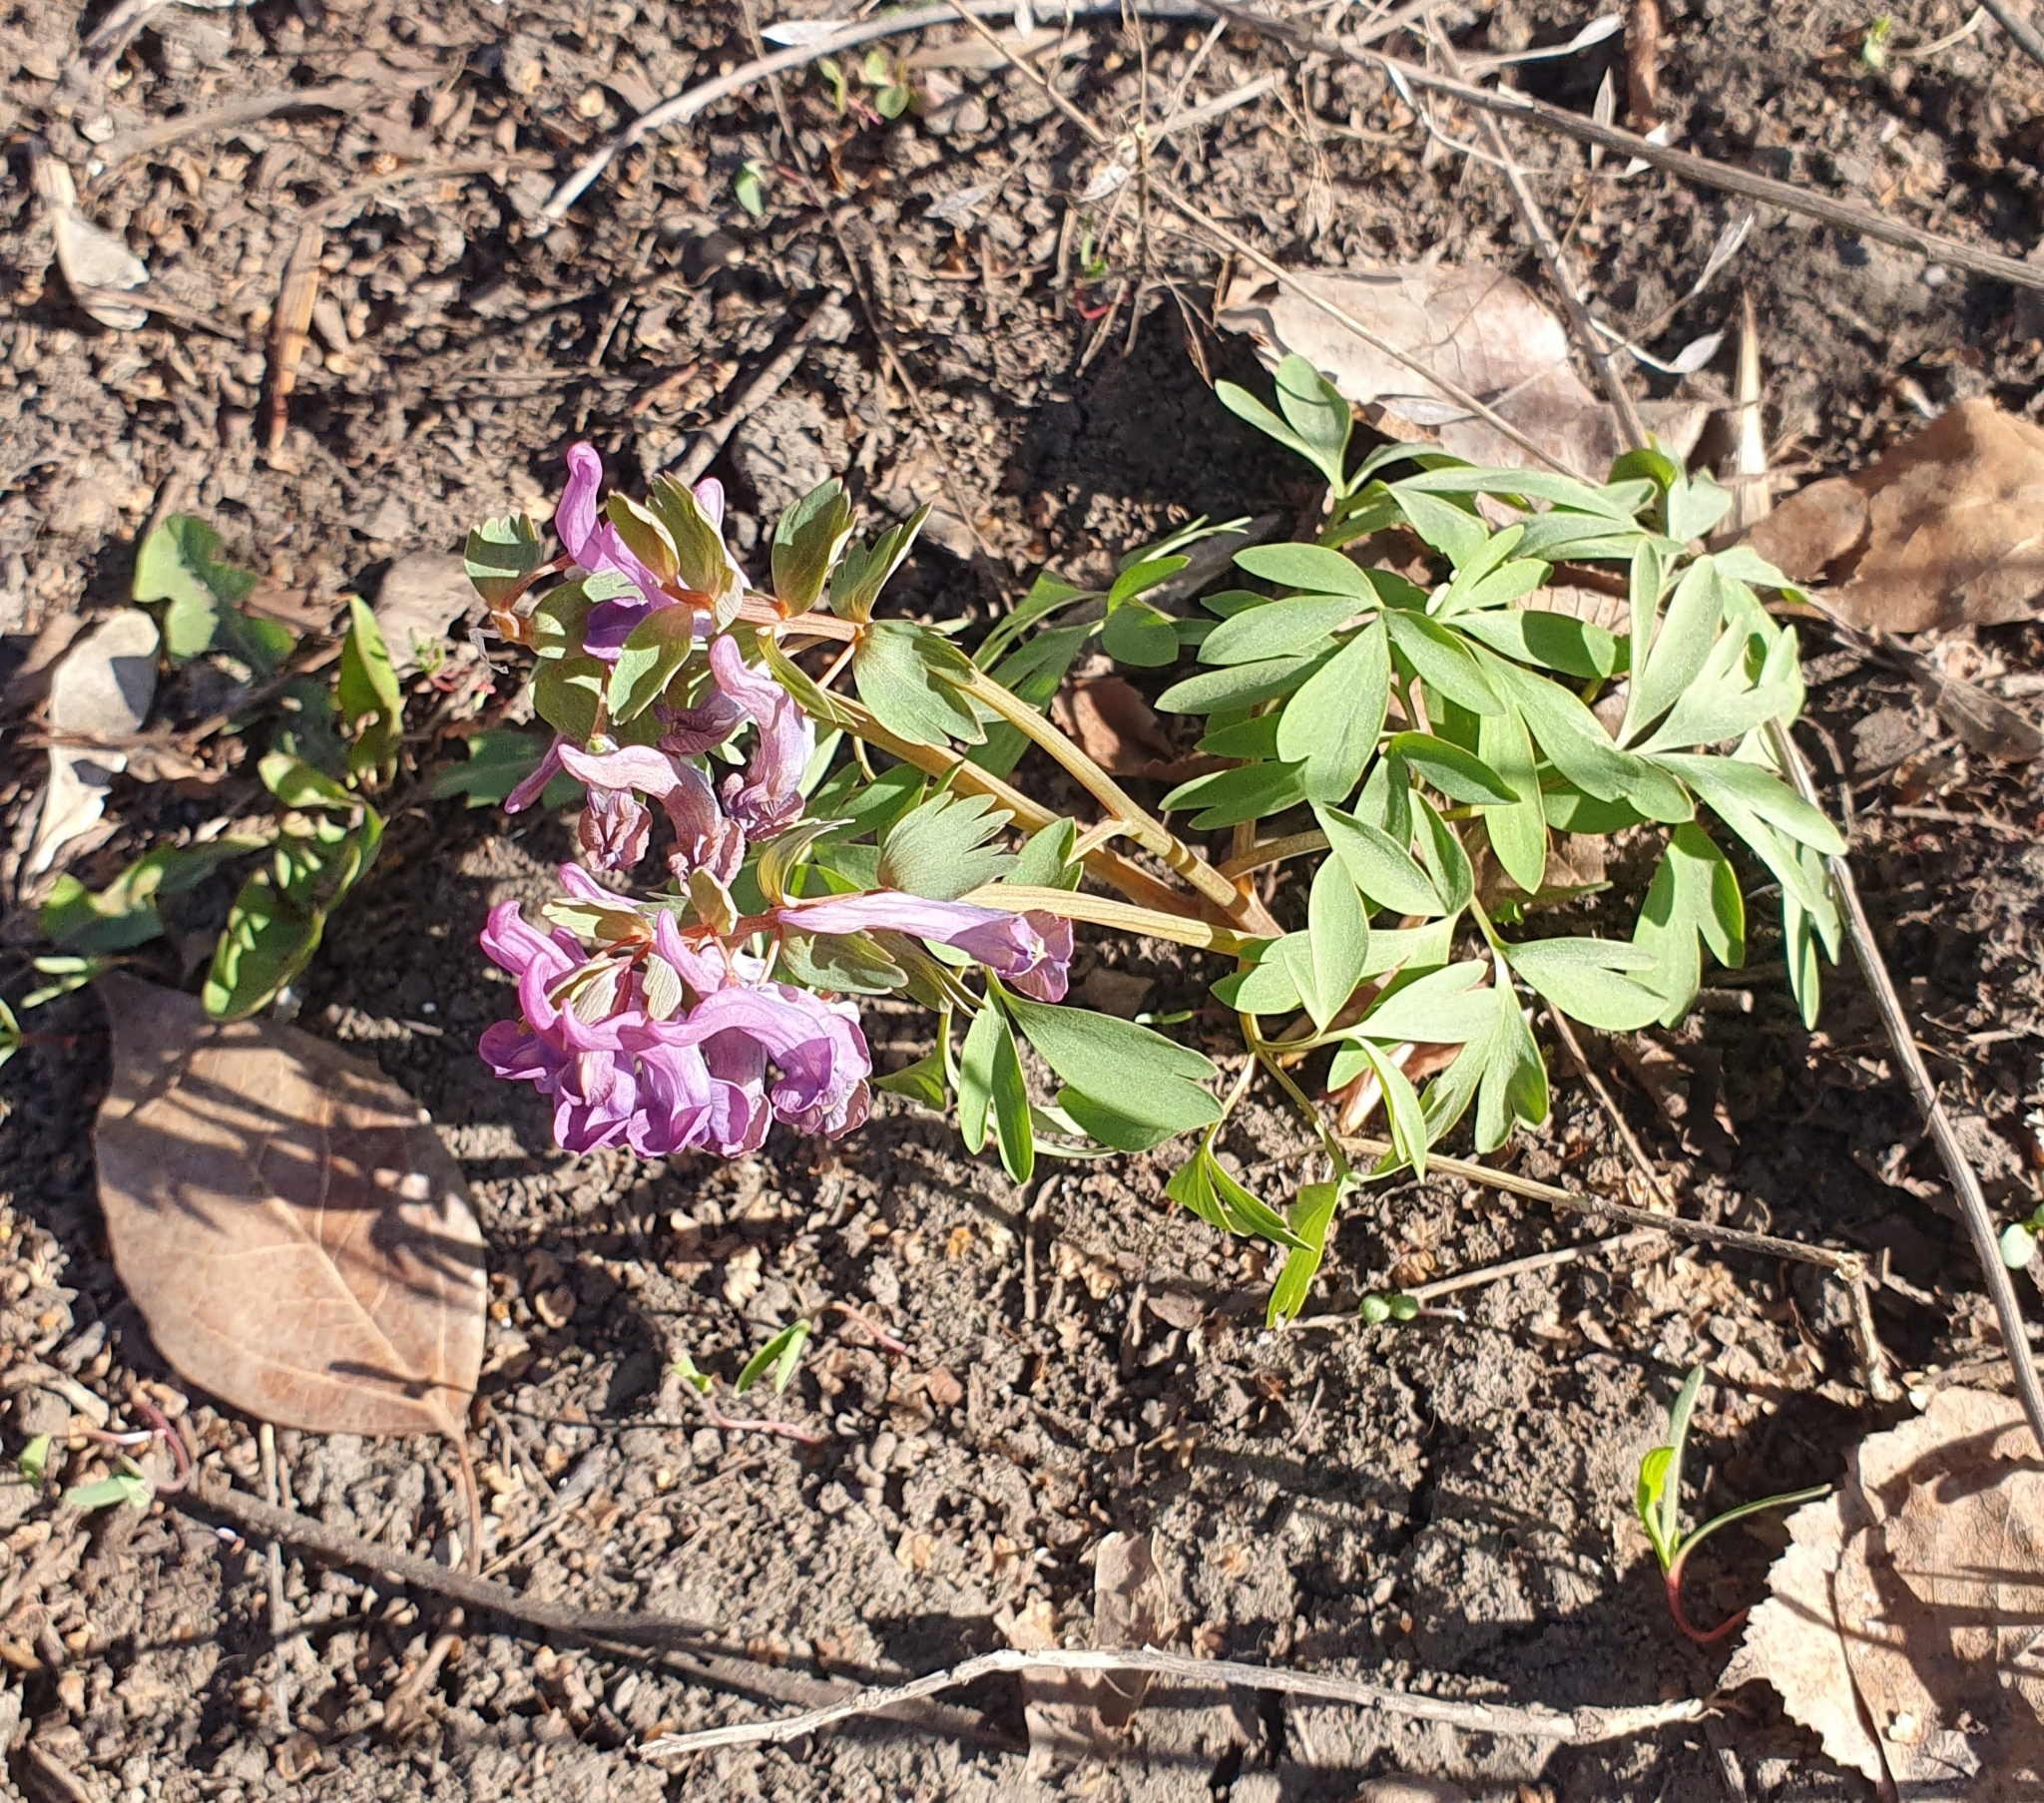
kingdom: Plantae
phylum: Tracheophyta
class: Magnoliopsida
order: Ranunculales
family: Papaveraceae
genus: Corydalis
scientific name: Corydalis solida
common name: Bird-in-a-bush
